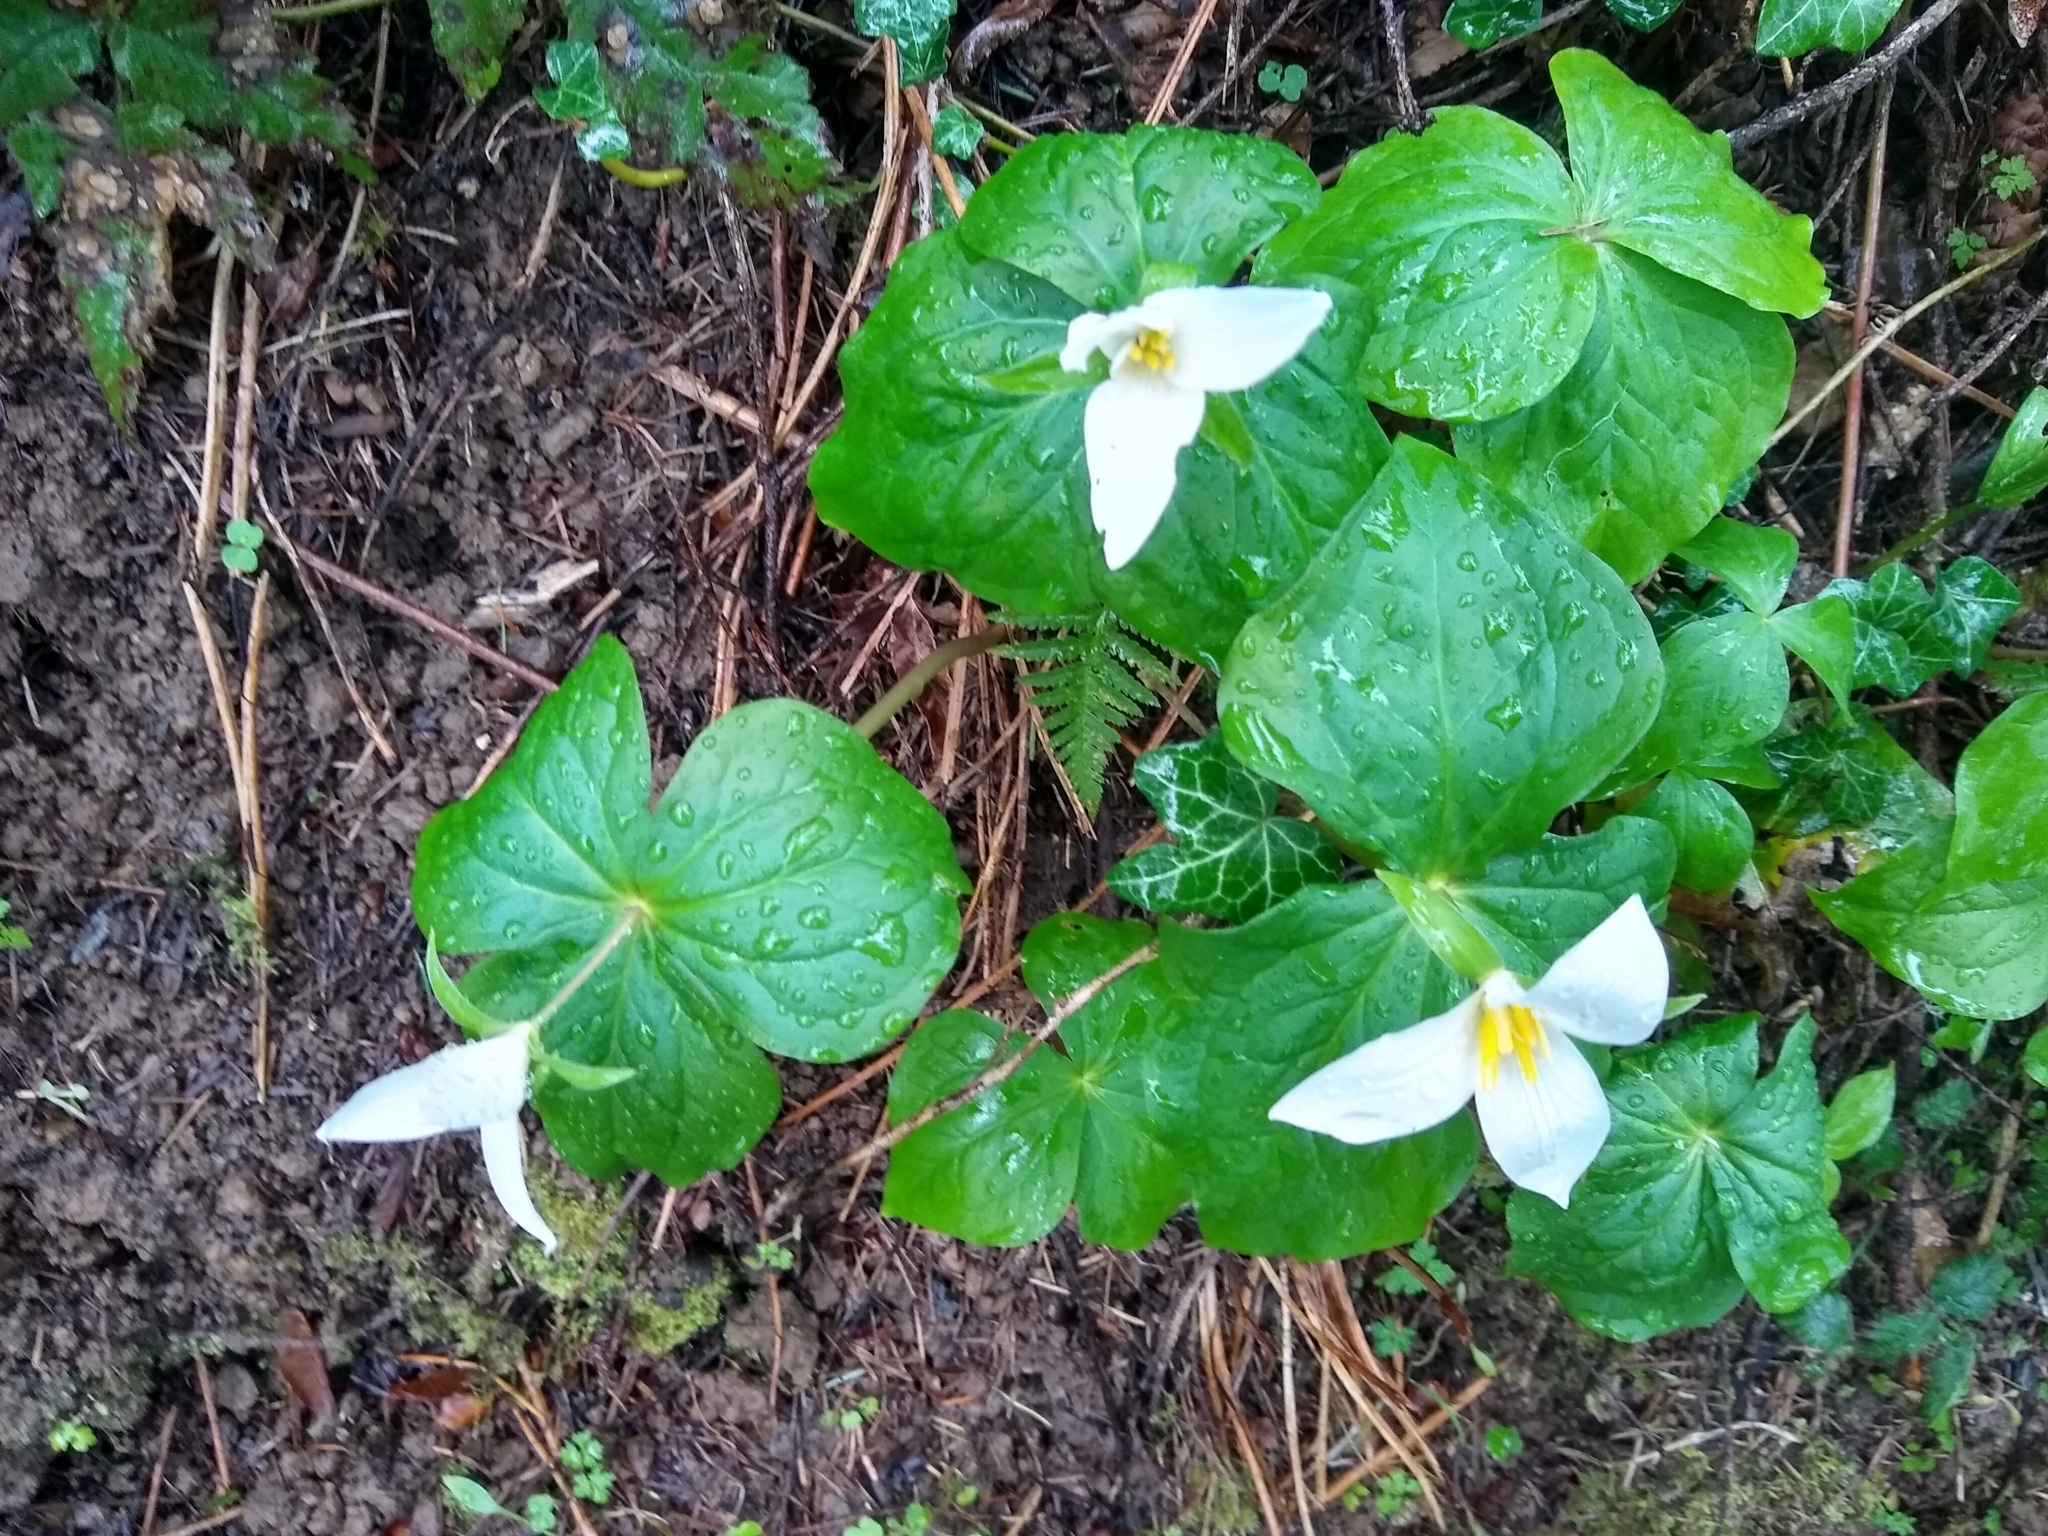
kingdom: Plantae
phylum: Tracheophyta
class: Liliopsida
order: Liliales
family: Melanthiaceae
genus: Trillium
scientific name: Trillium ovatum
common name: Pacific trillium
